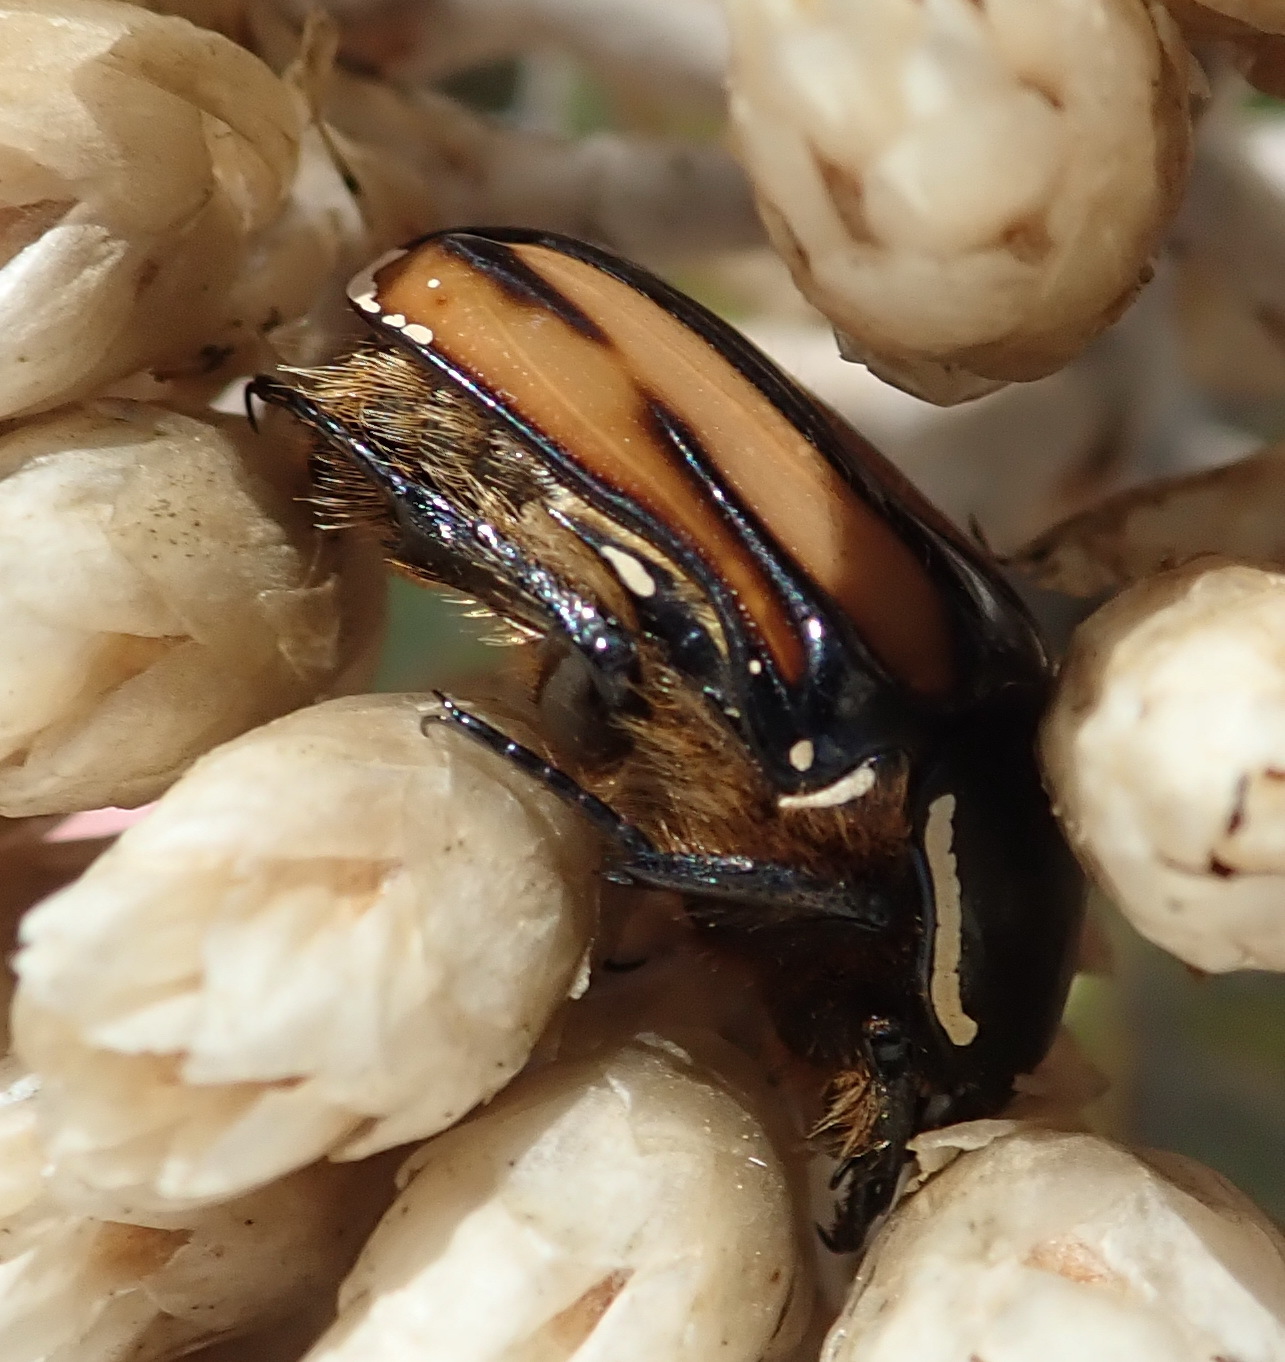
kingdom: Animalia
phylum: Arthropoda
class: Insecta
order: Coleoptera
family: Scarabaeidae
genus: Trichostetha
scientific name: Trichostetha signata
